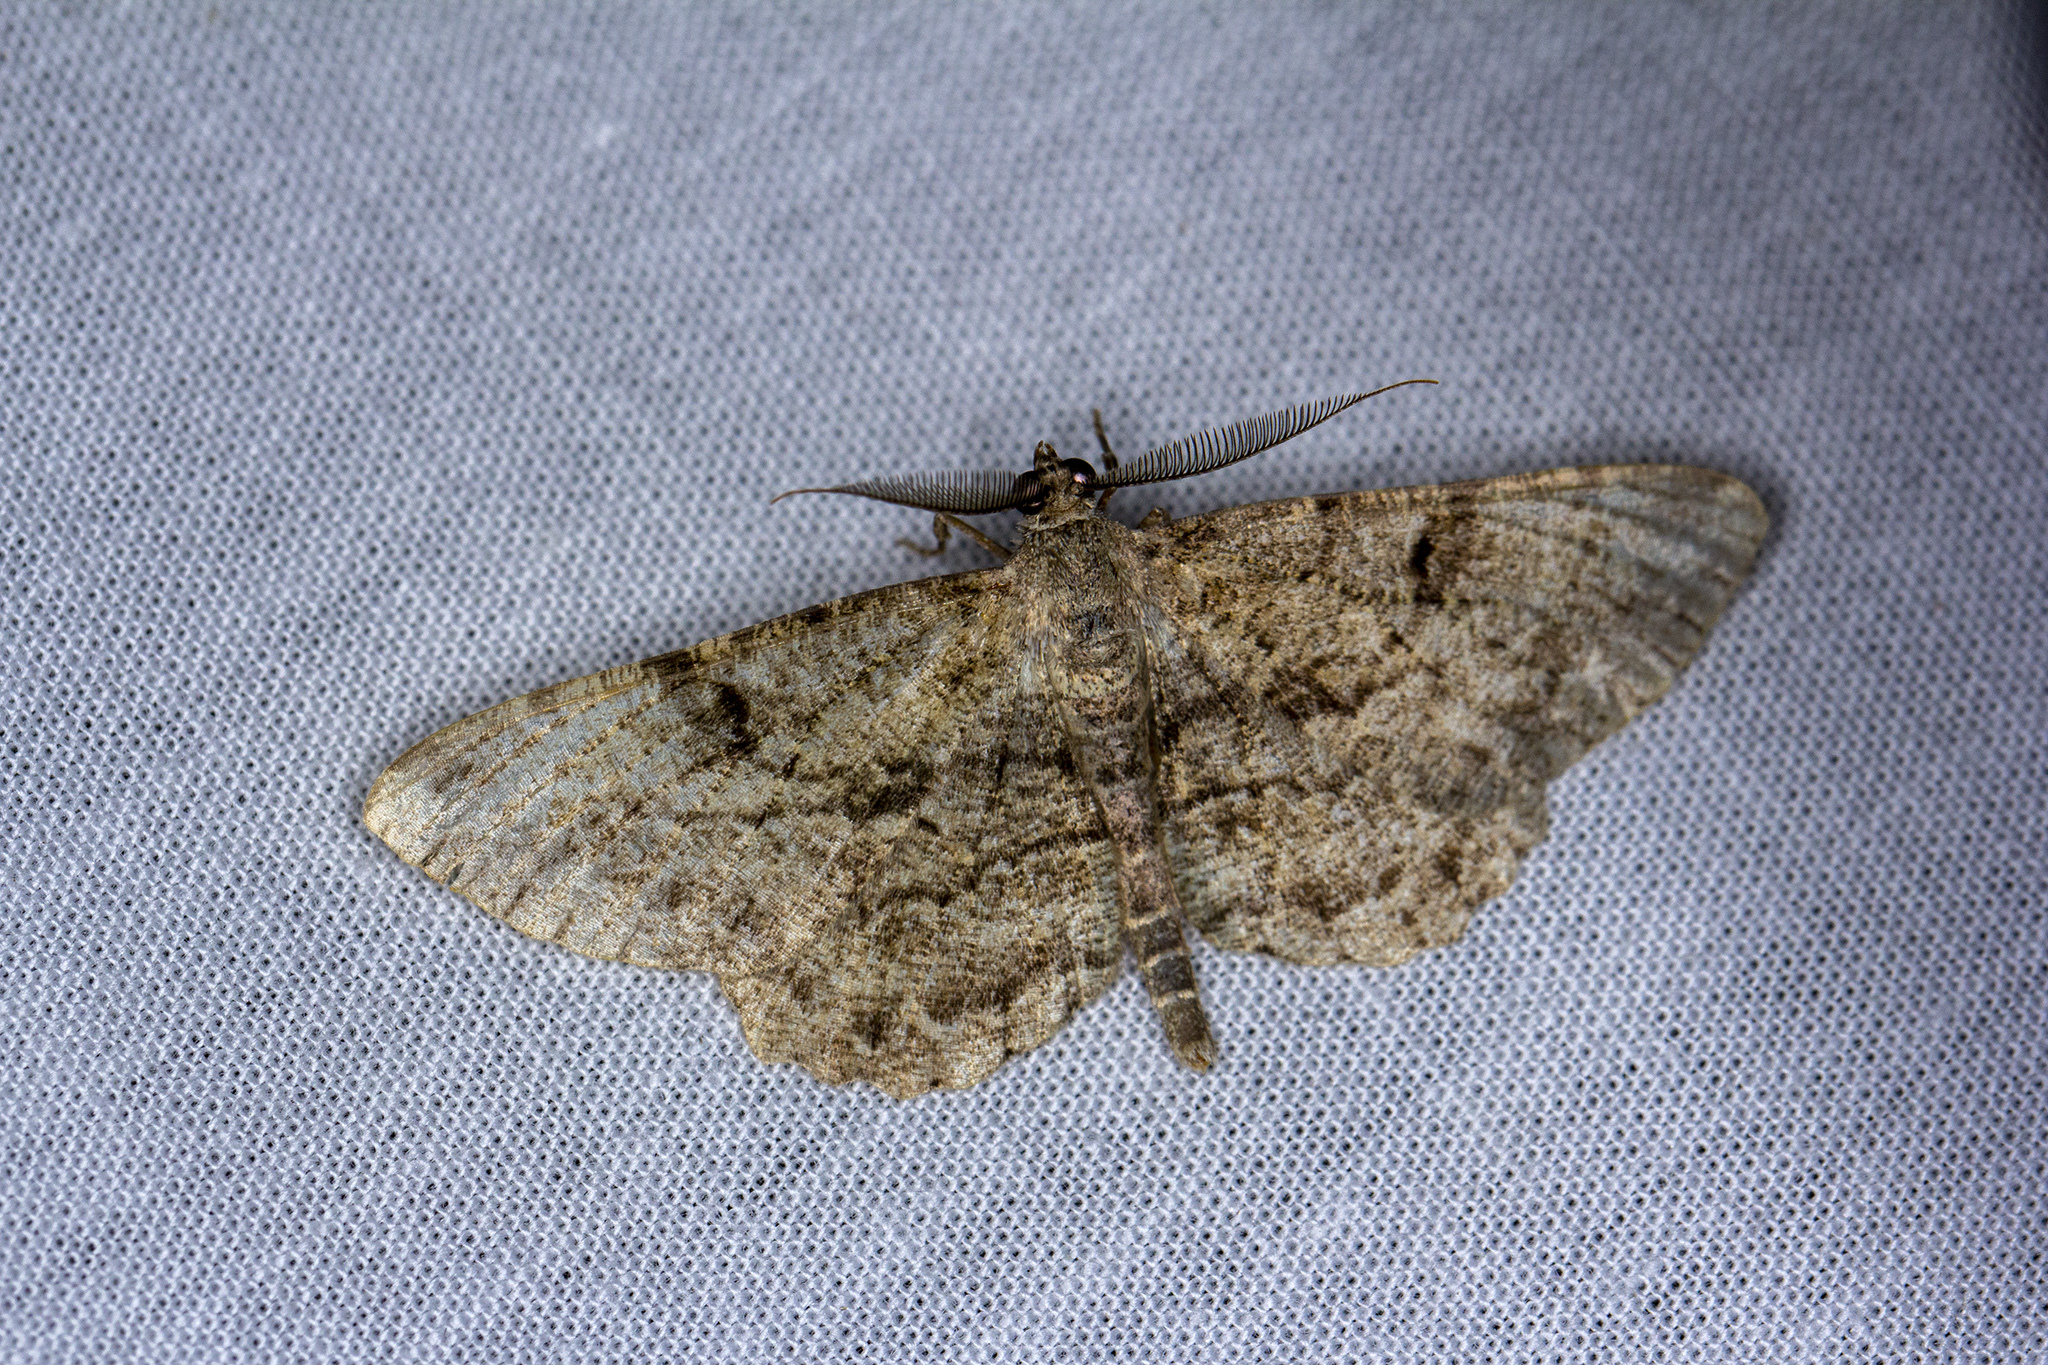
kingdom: Animalia
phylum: Arthropoda
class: Insecta
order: Lepidoptera
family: Geometridae
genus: Peribatodes
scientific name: Peribatodes rhomboidaria
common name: Willow beauty
